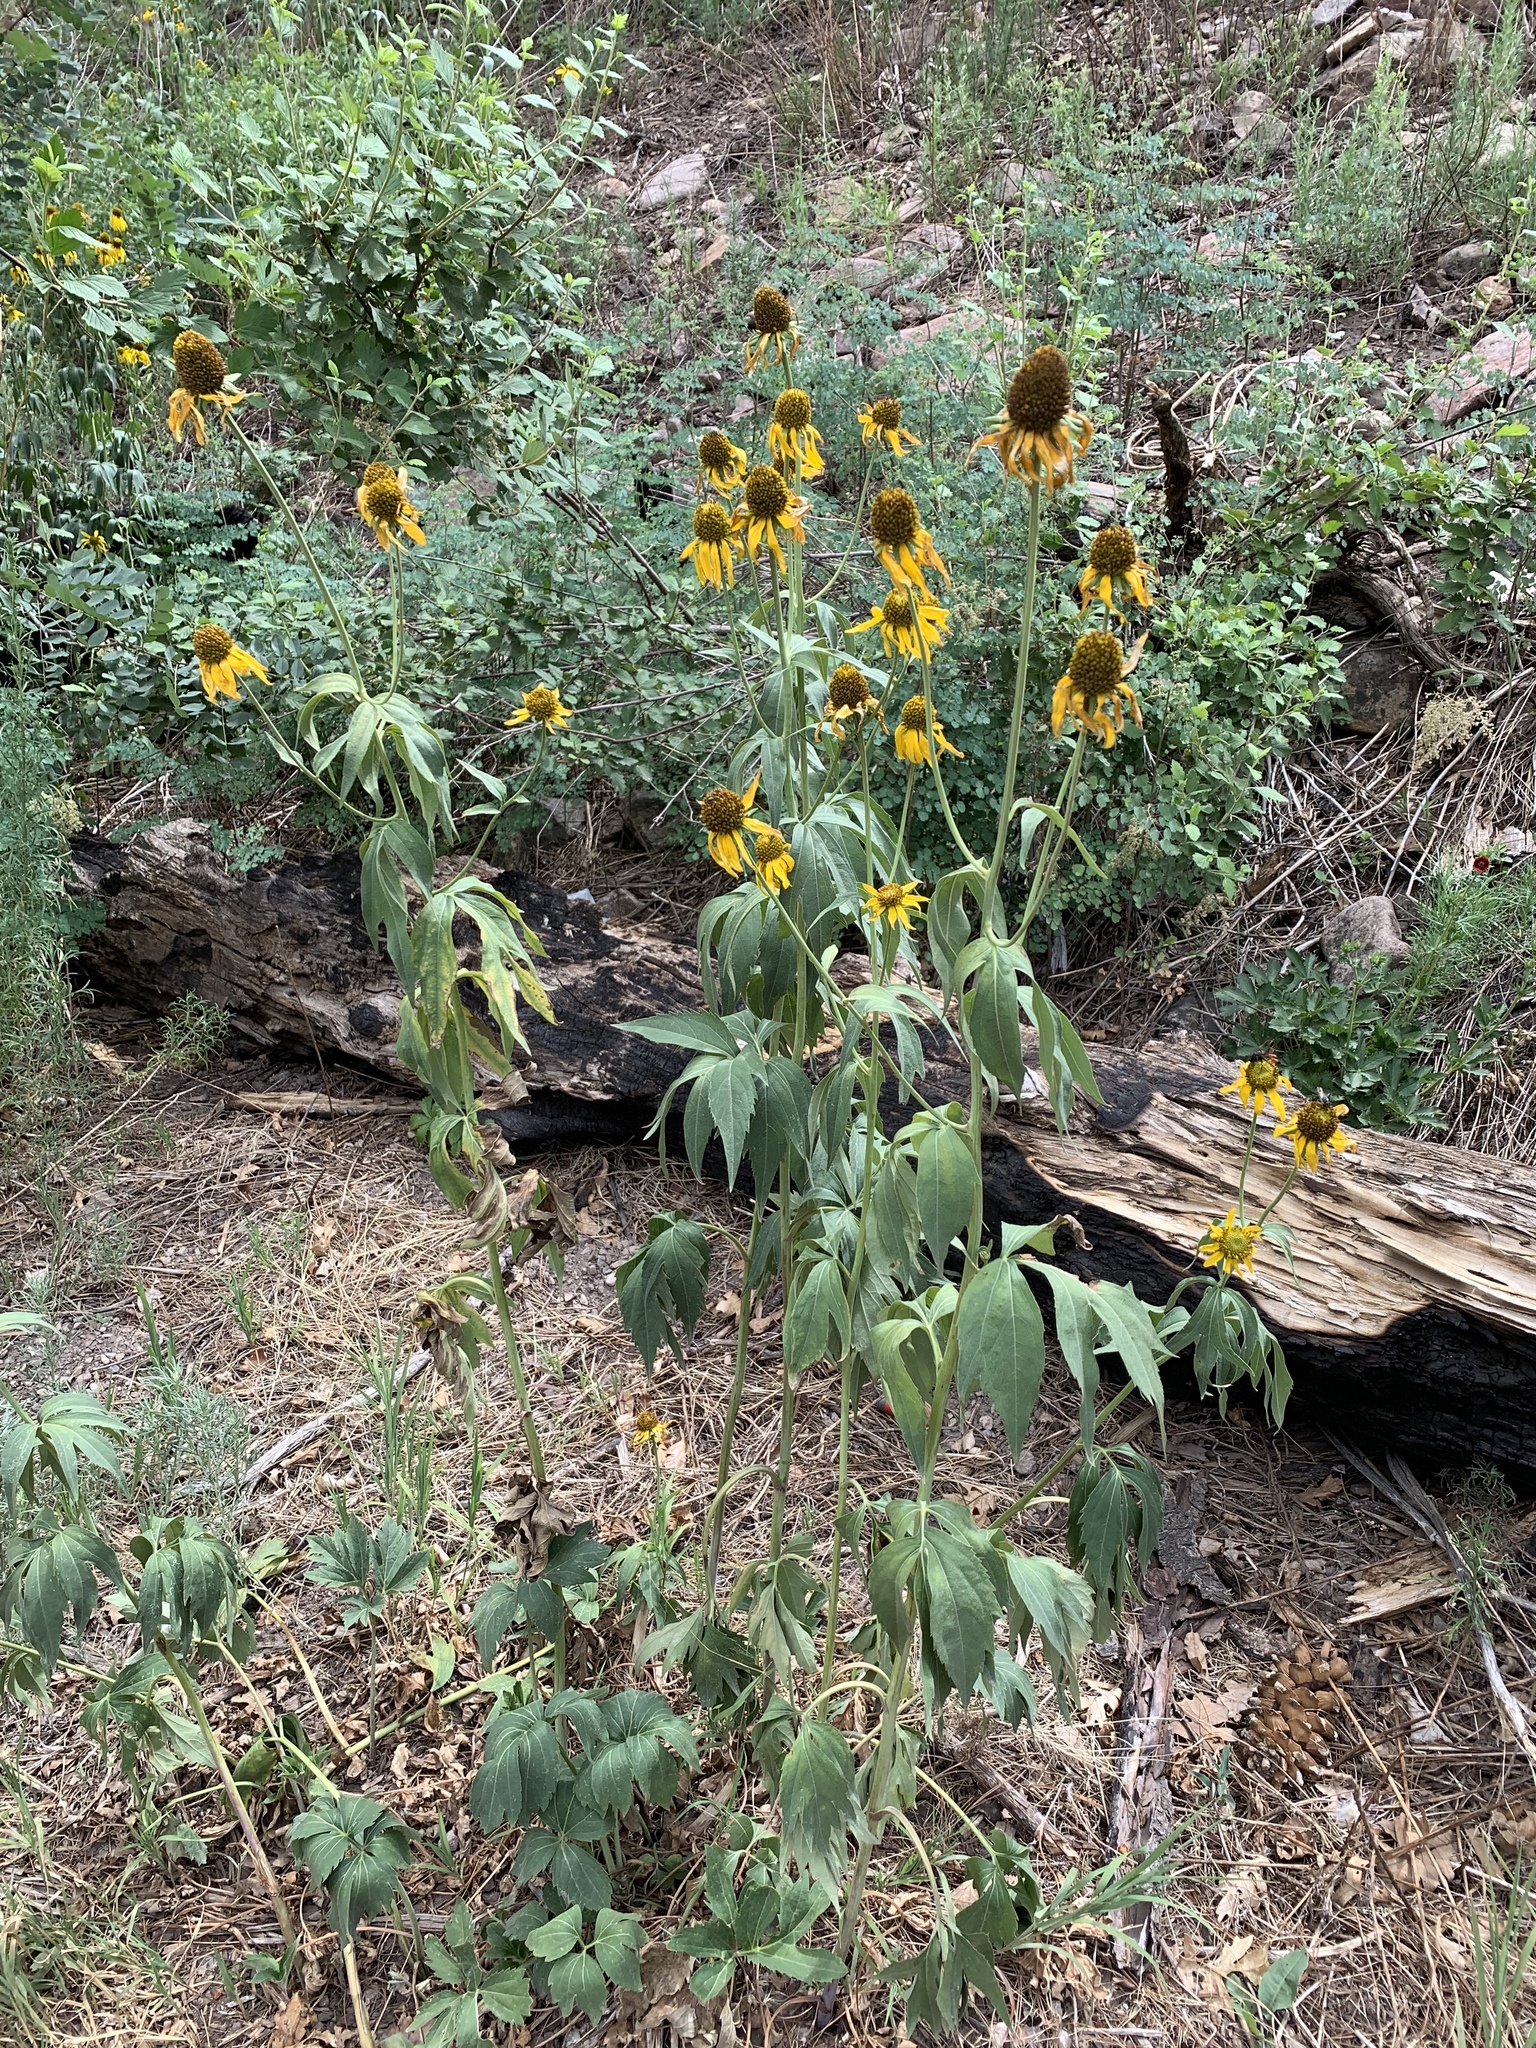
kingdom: Plantae
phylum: Tracheophyta
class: Magnoliopsida
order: Asterales
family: Asteraceae
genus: Rudbeckia
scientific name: Rudbeckia laciniata
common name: Coneflower
